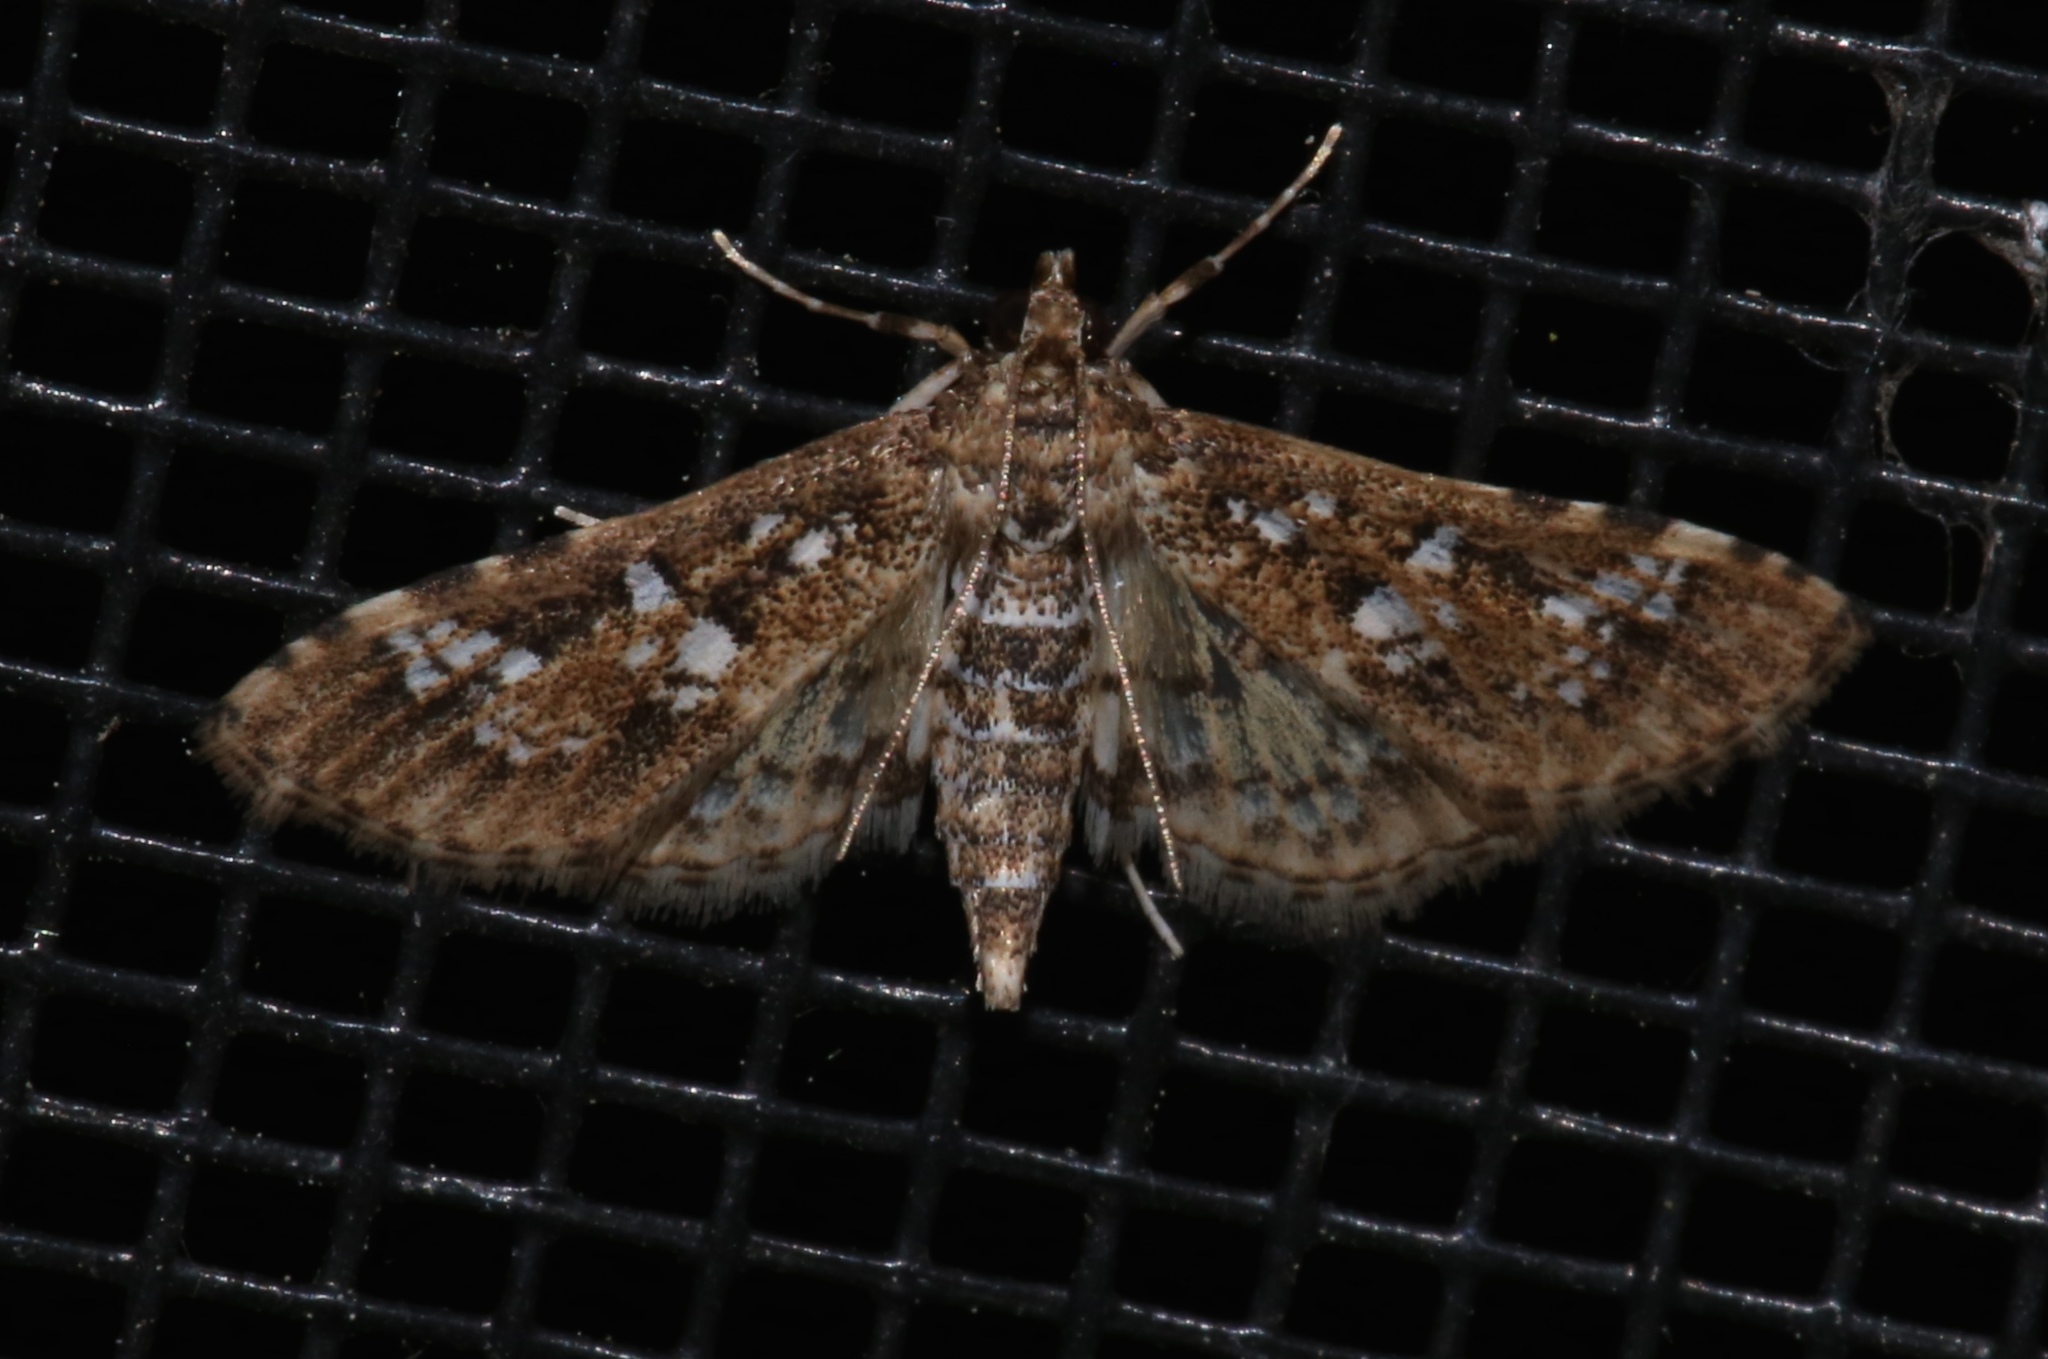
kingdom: Animalia
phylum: Arthropoda
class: Insecta
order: Lepidoptera
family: Crambidae
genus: Samea
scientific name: Samea multiplicalis
